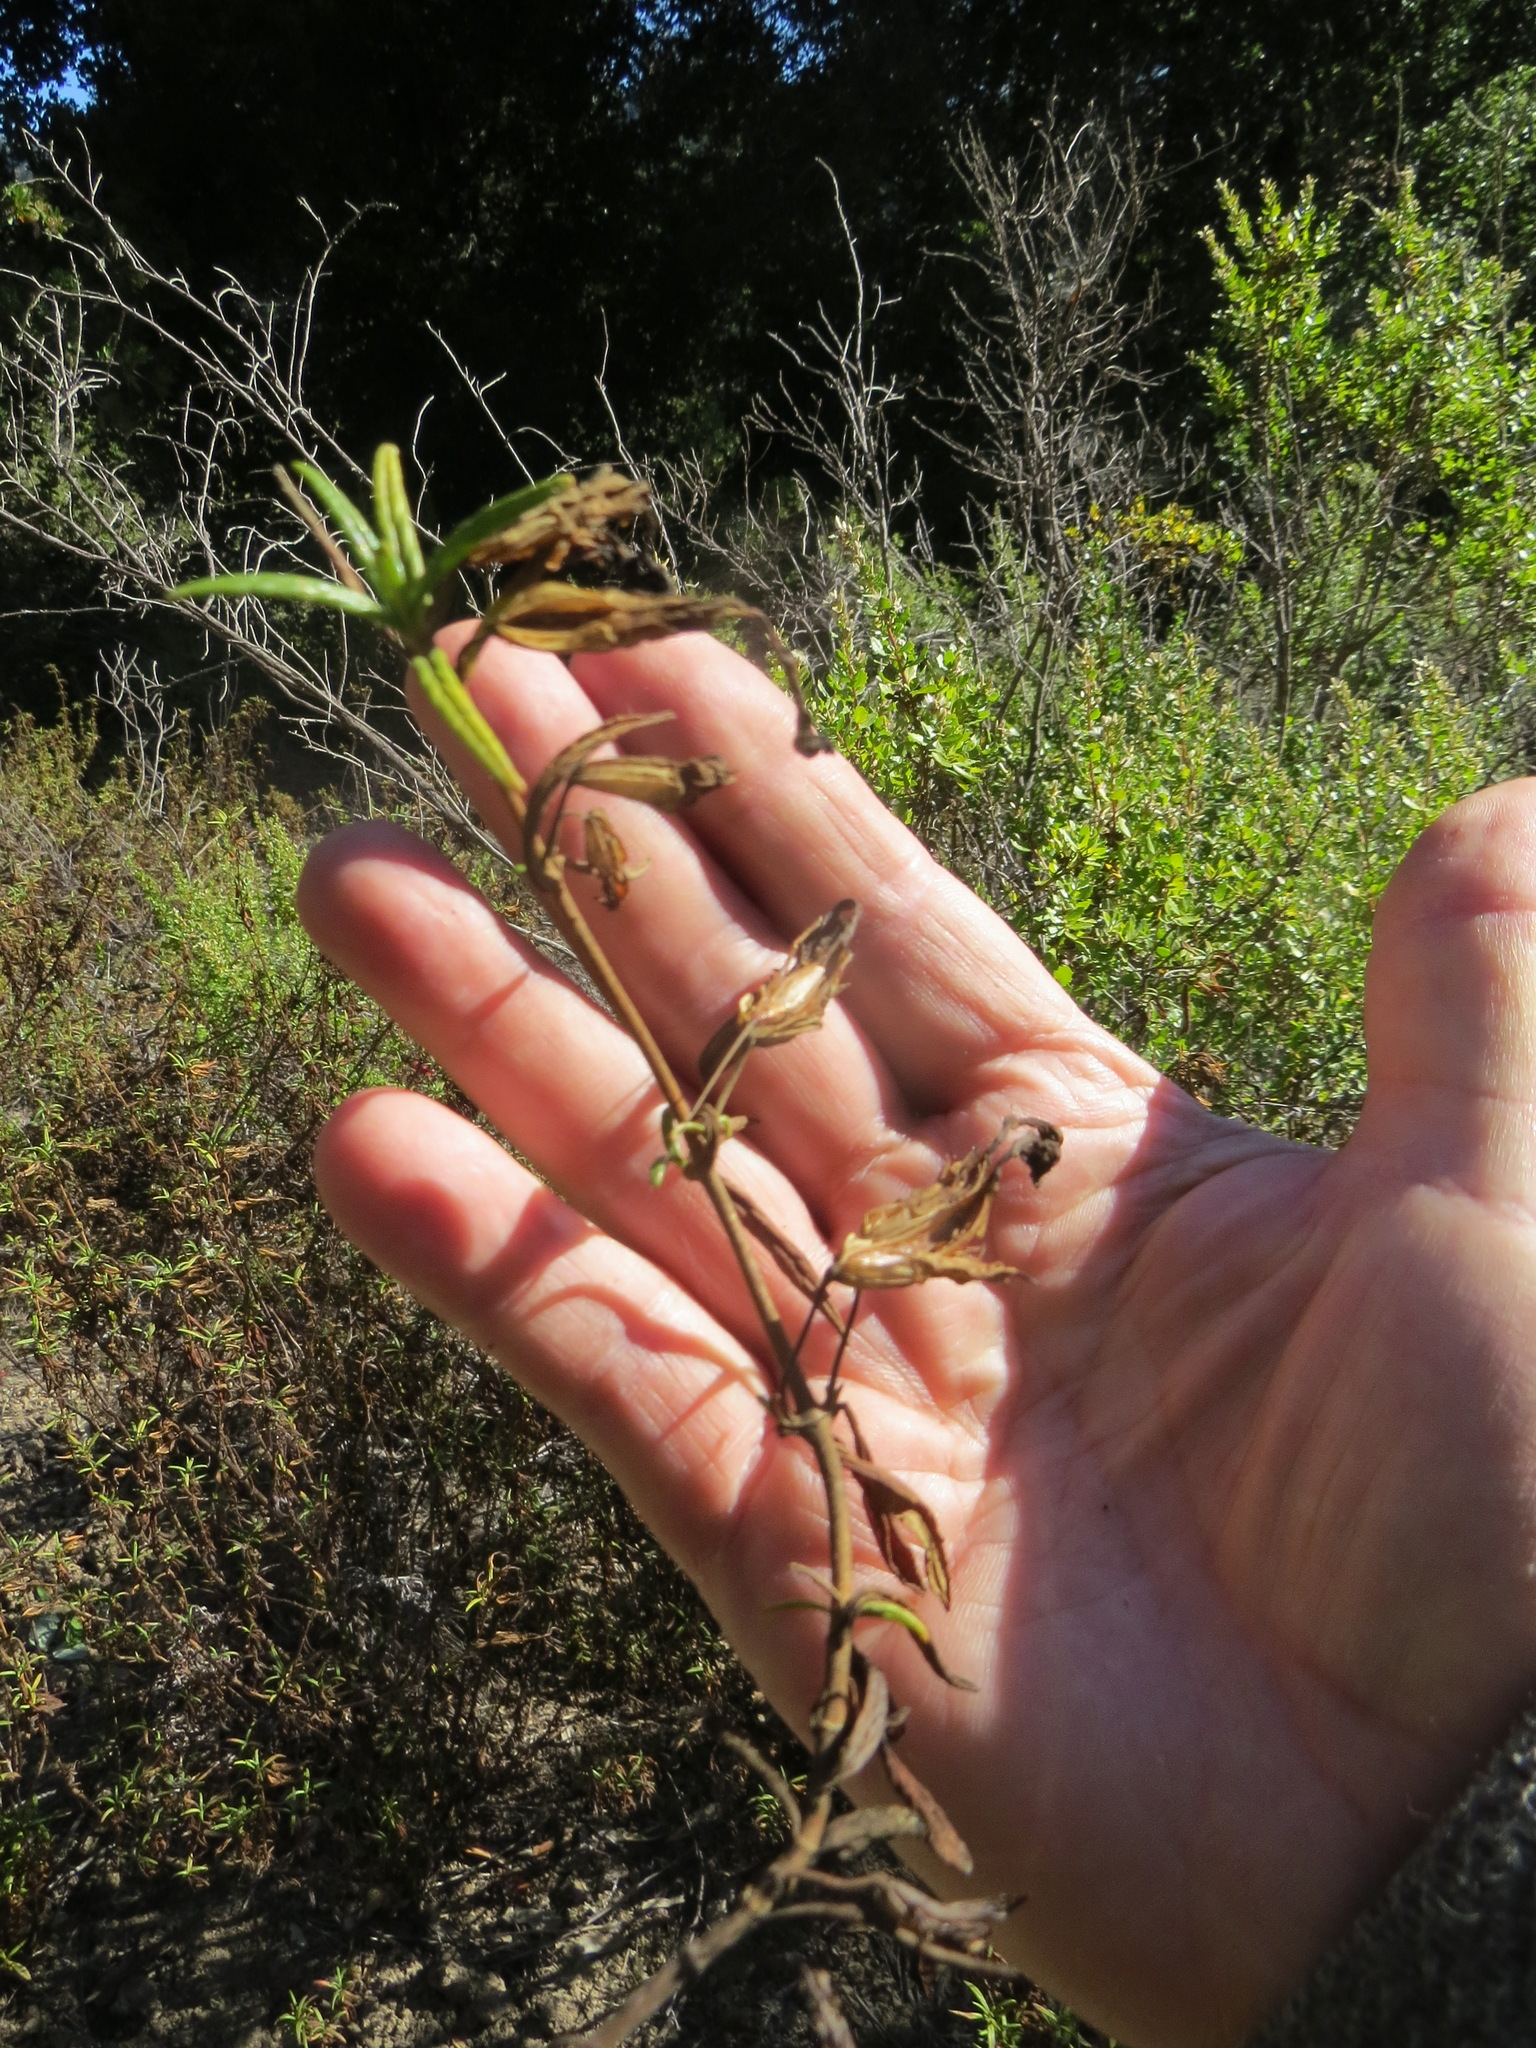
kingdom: Animalia
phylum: Arthropoda
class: Insecta
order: Diptera
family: Cecidomyiidae
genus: Neolasioptera
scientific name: Neolasioptera mimuli
